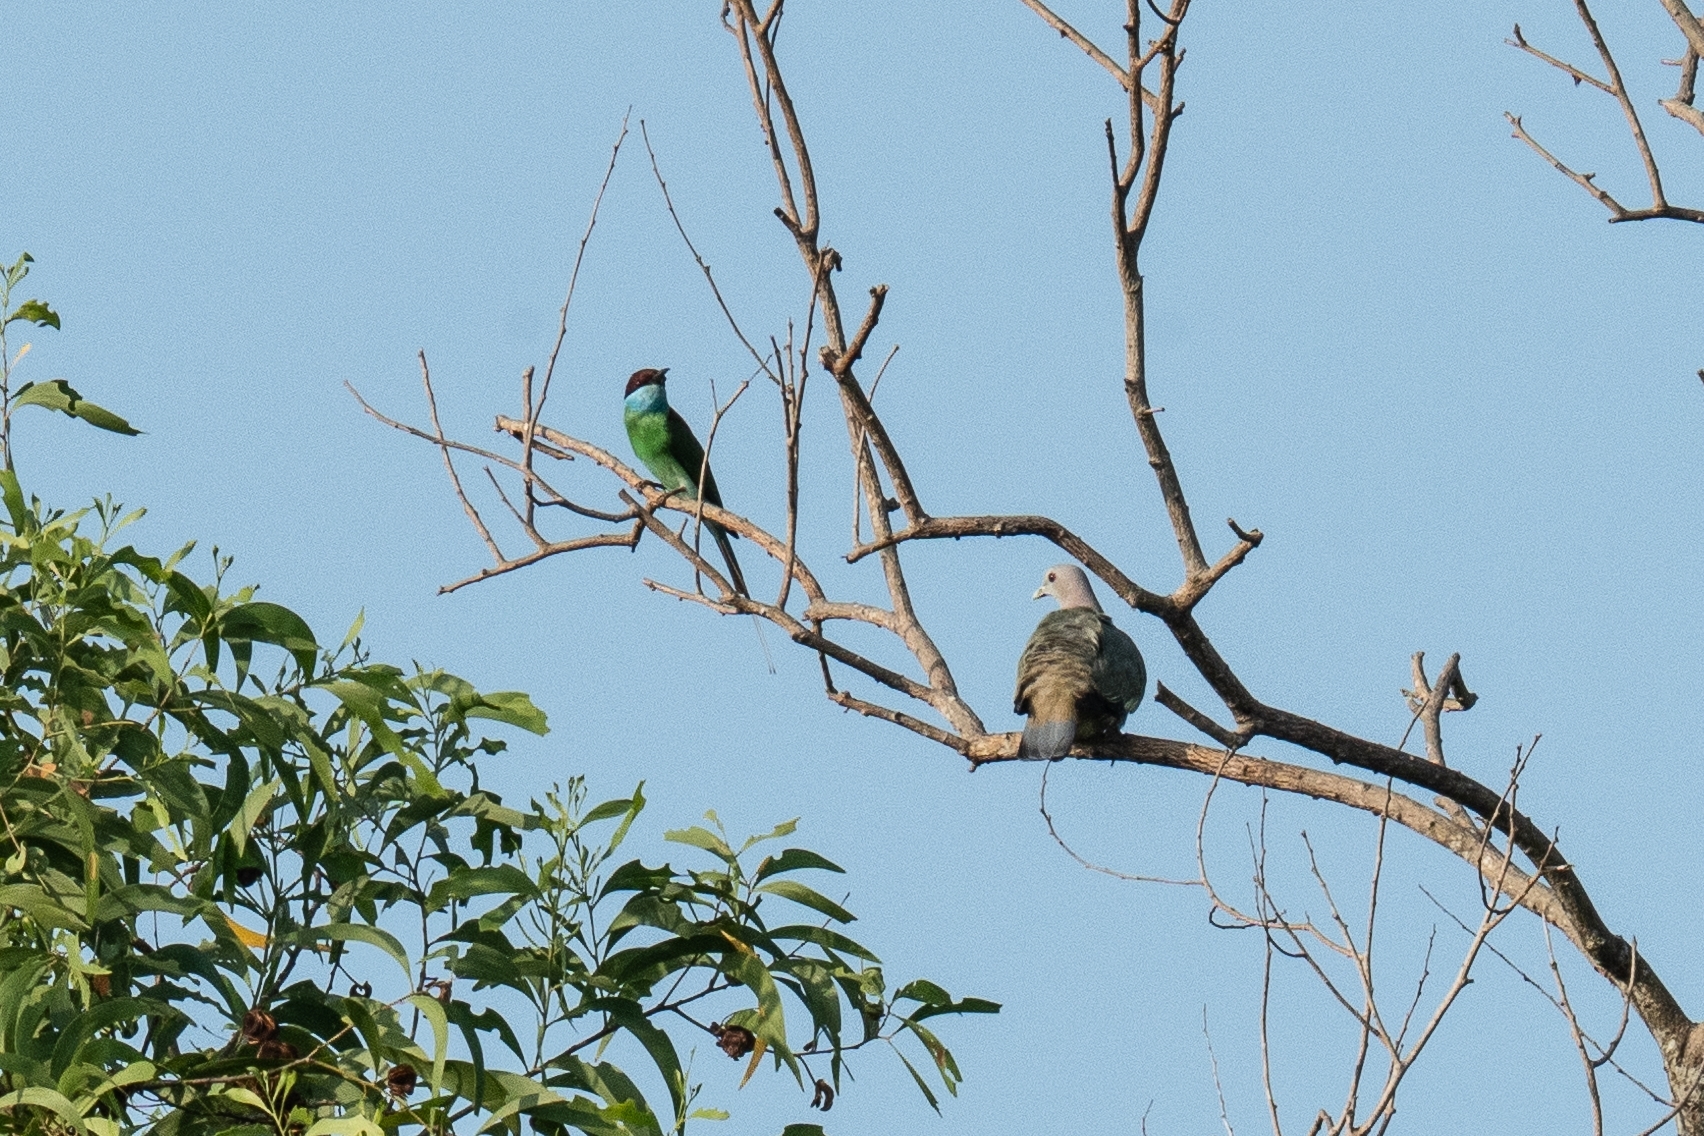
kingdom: Animalia
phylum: Chordata
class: Aves
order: Columbiformes
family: Columbidae
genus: Spilopelia
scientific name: Spilopelia chinensis
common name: Spotted dove
